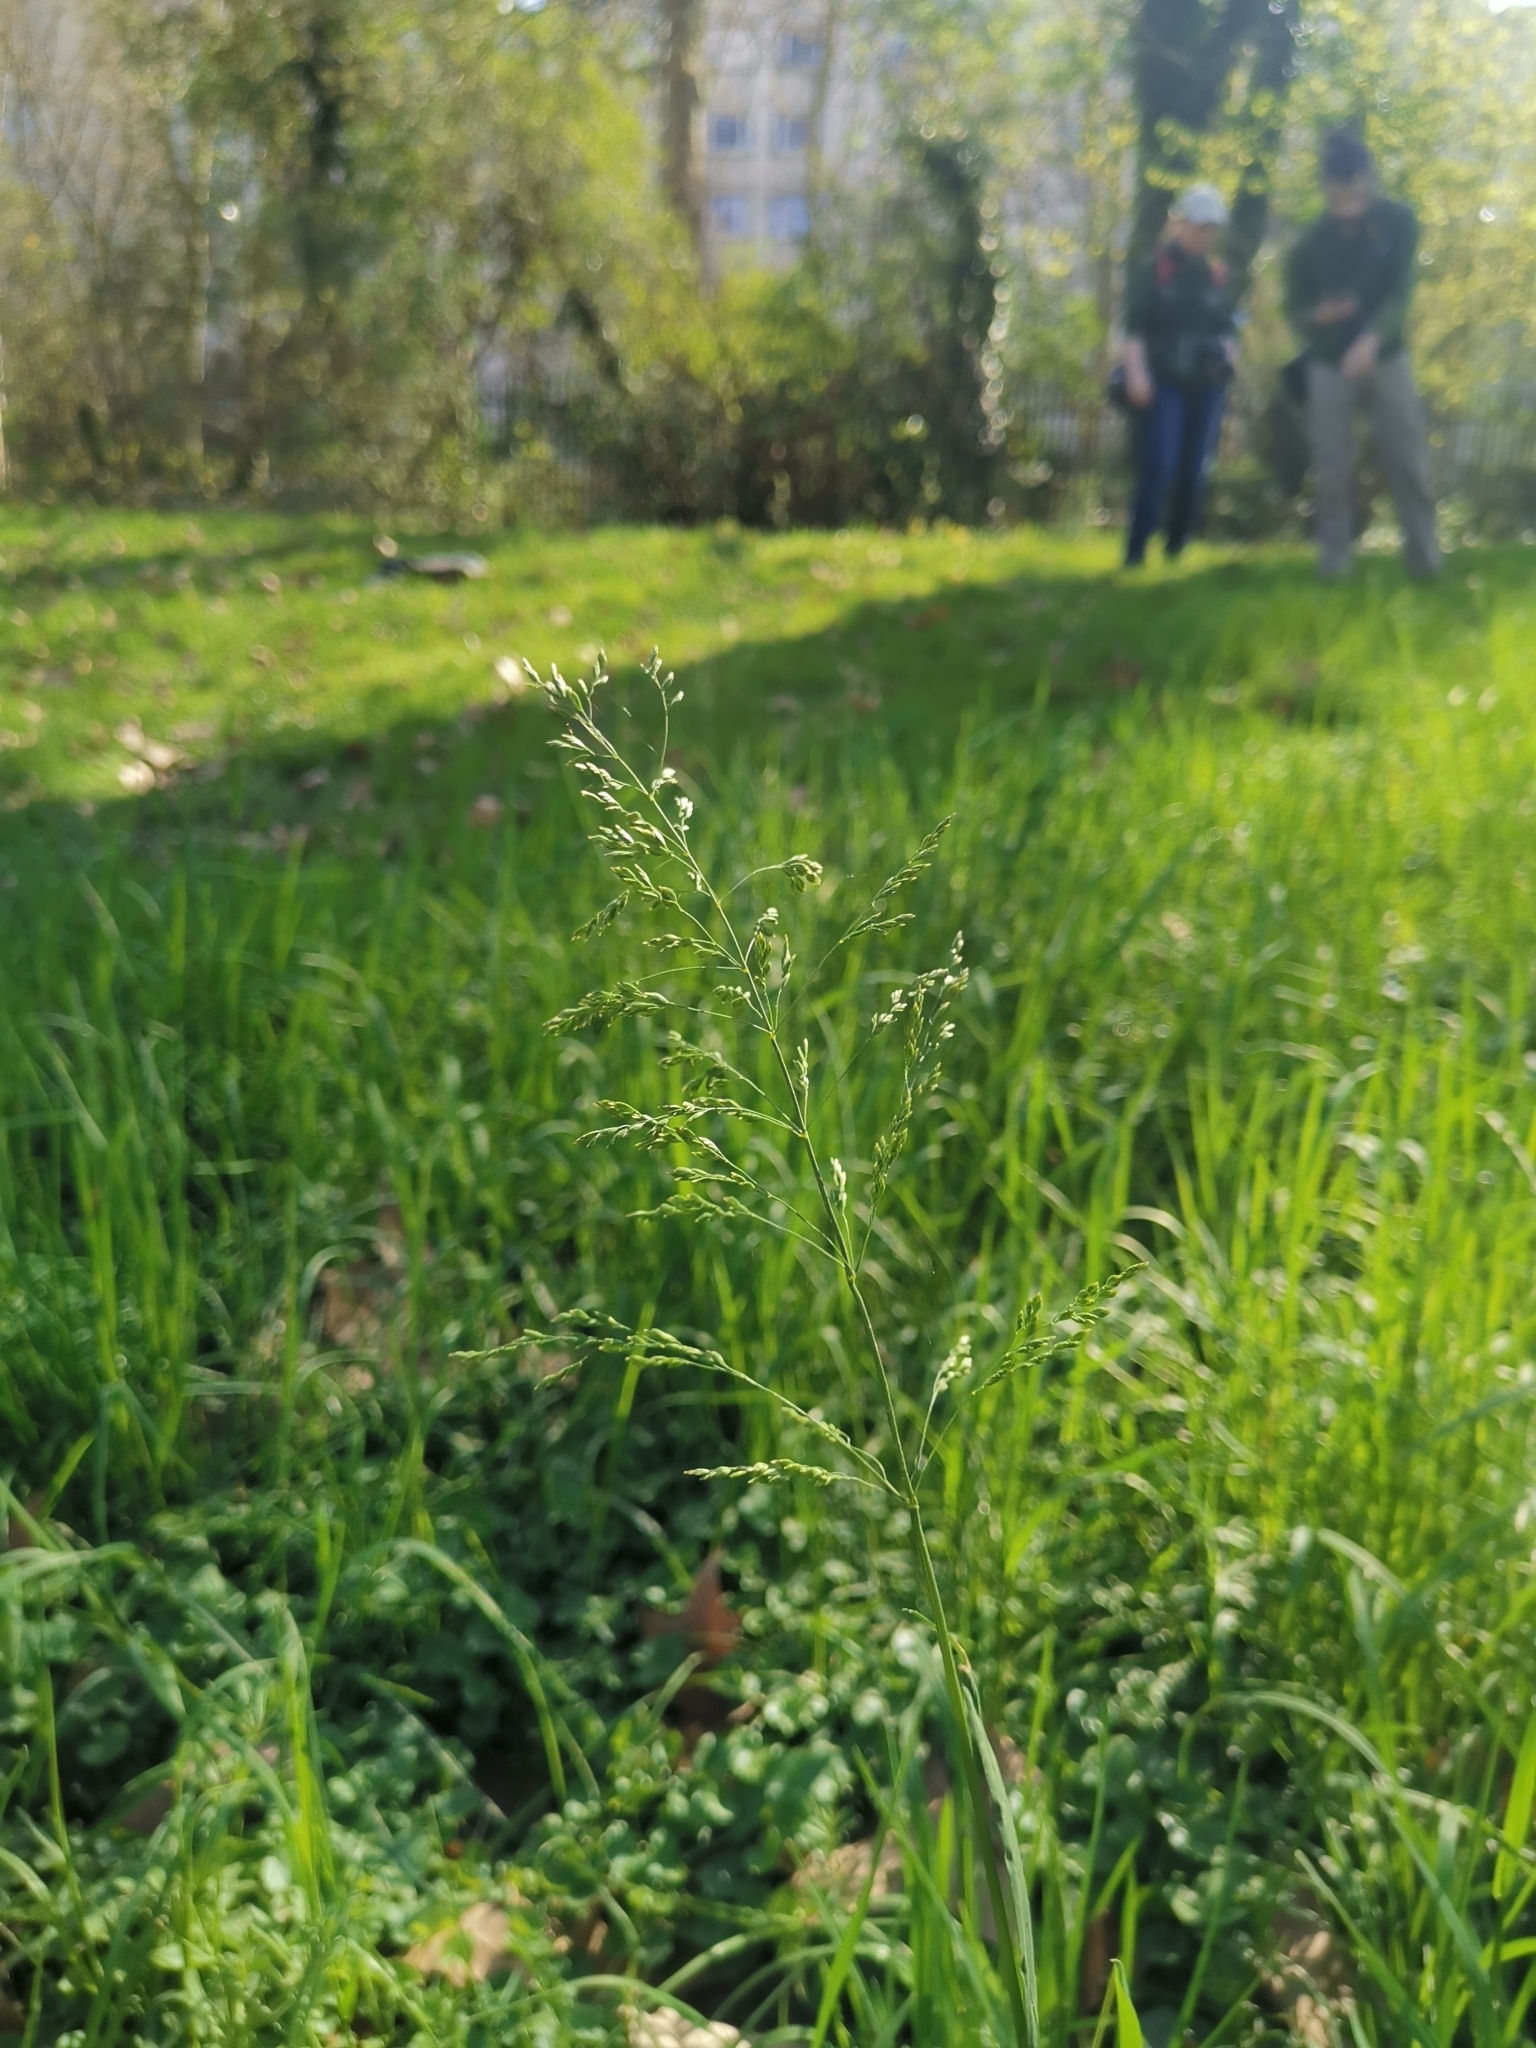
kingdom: Plantae
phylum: Tracheophyta
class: Liliopsida
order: Poales
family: Poaceae
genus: Poa
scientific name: Poa trivialis
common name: Rough bluegrass
